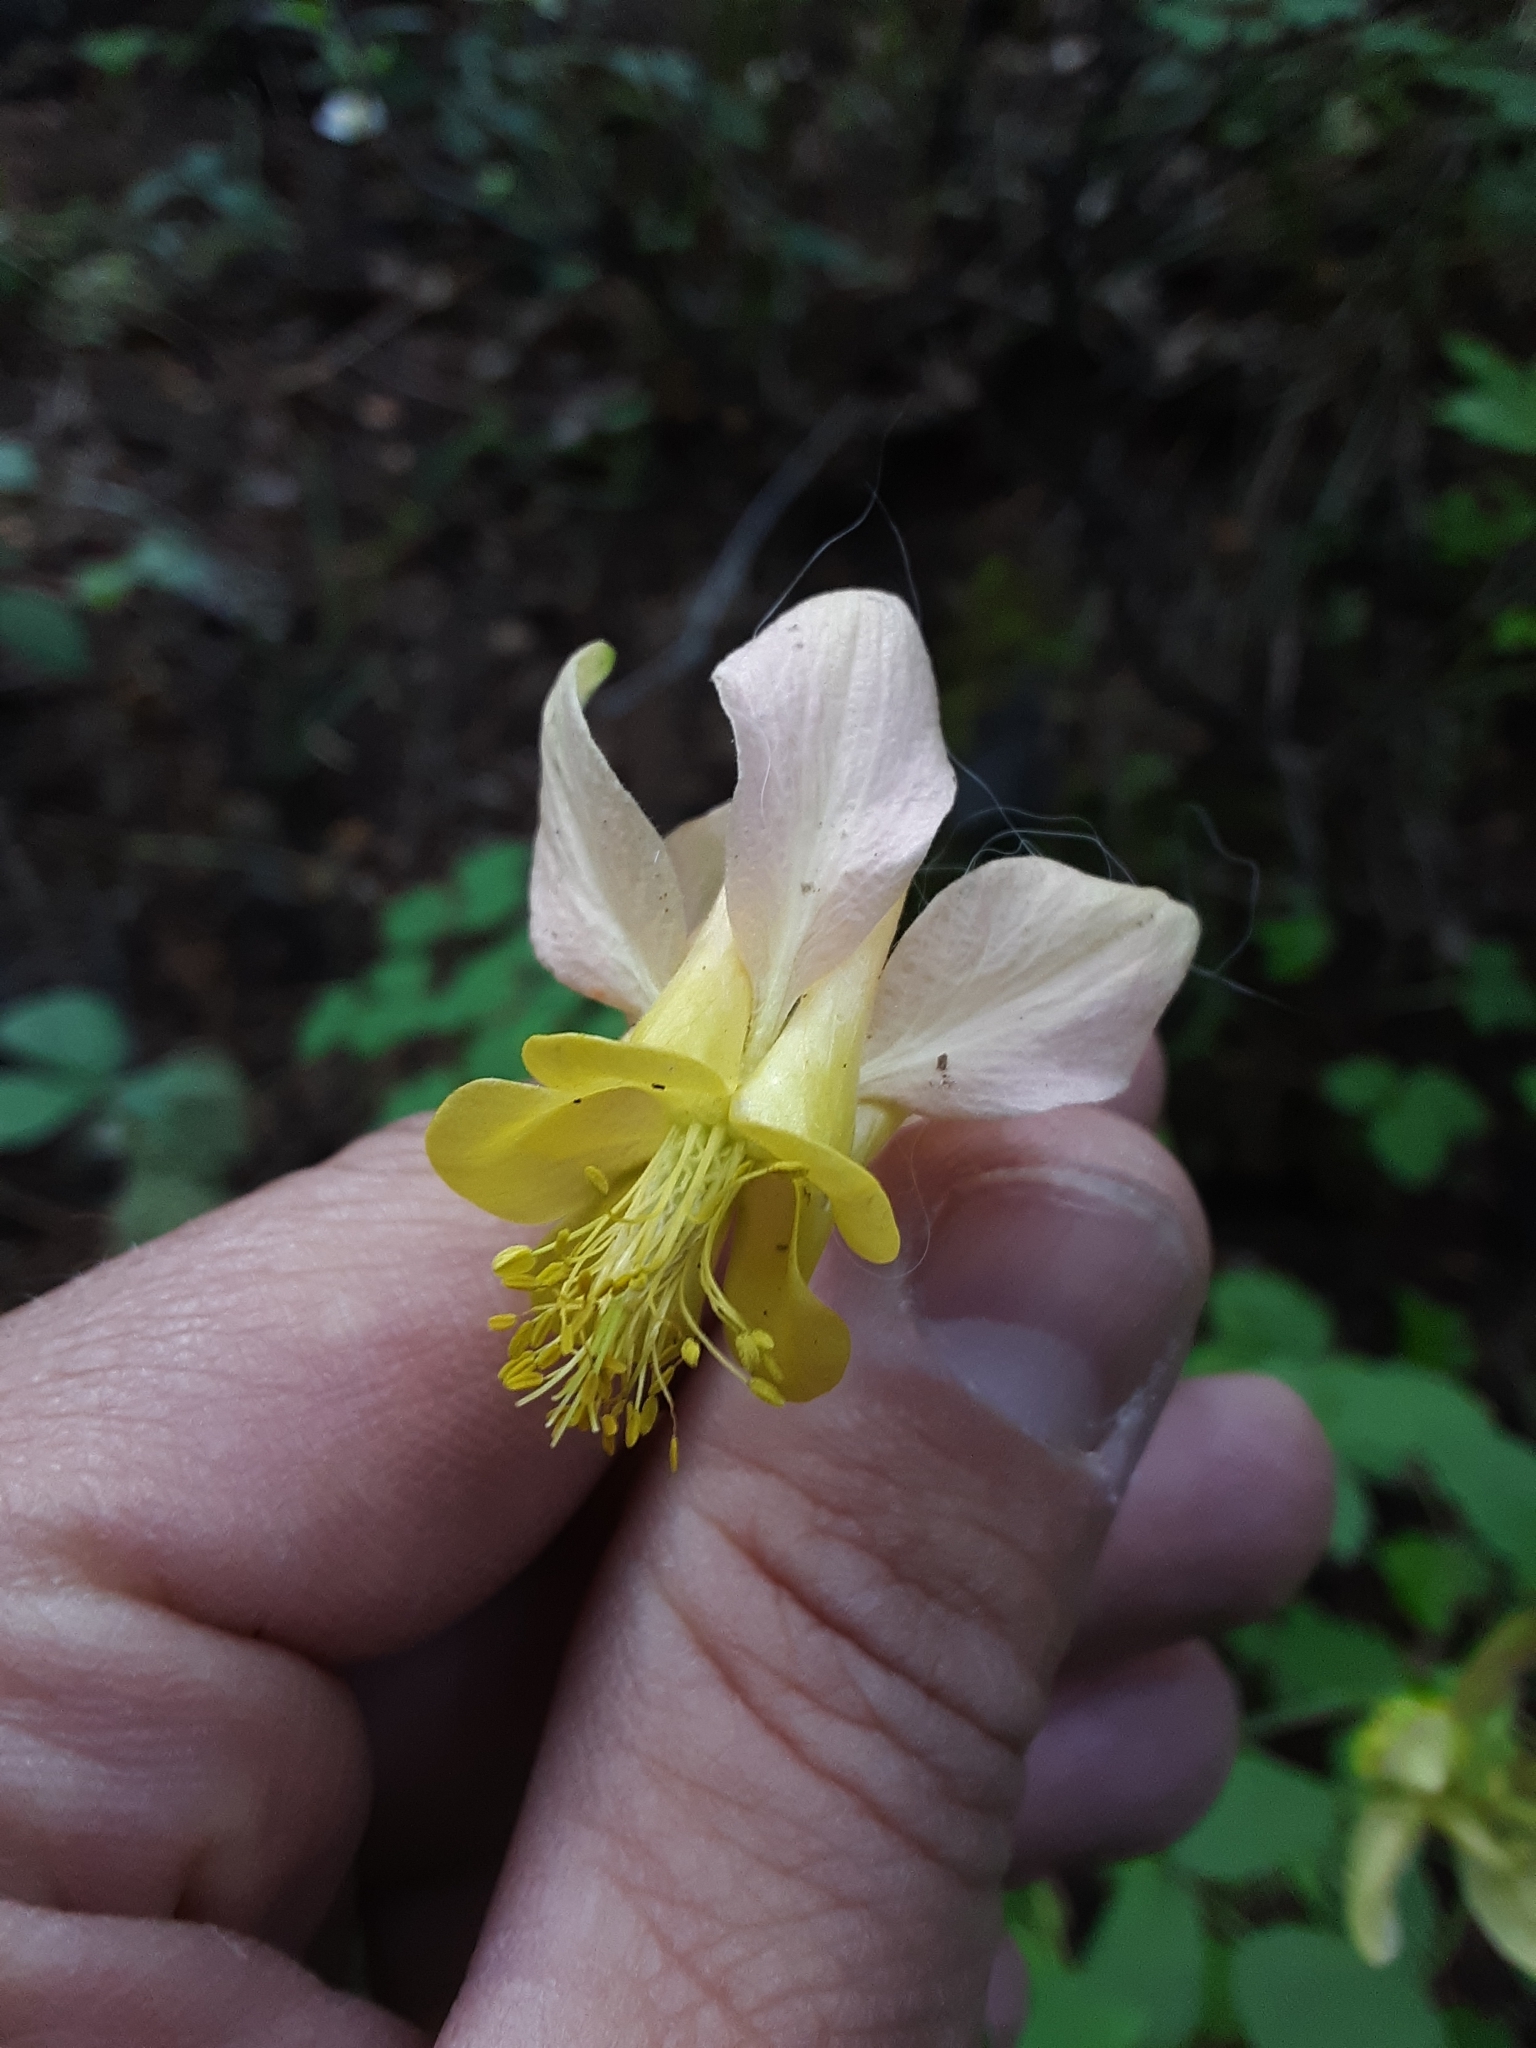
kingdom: Plantae
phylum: Tracheophyta
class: Magnoliopsida
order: Ranunculales
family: Ranunculaceae
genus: Aquilegia
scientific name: Aquilegia flavescens
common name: Yellow columbine
